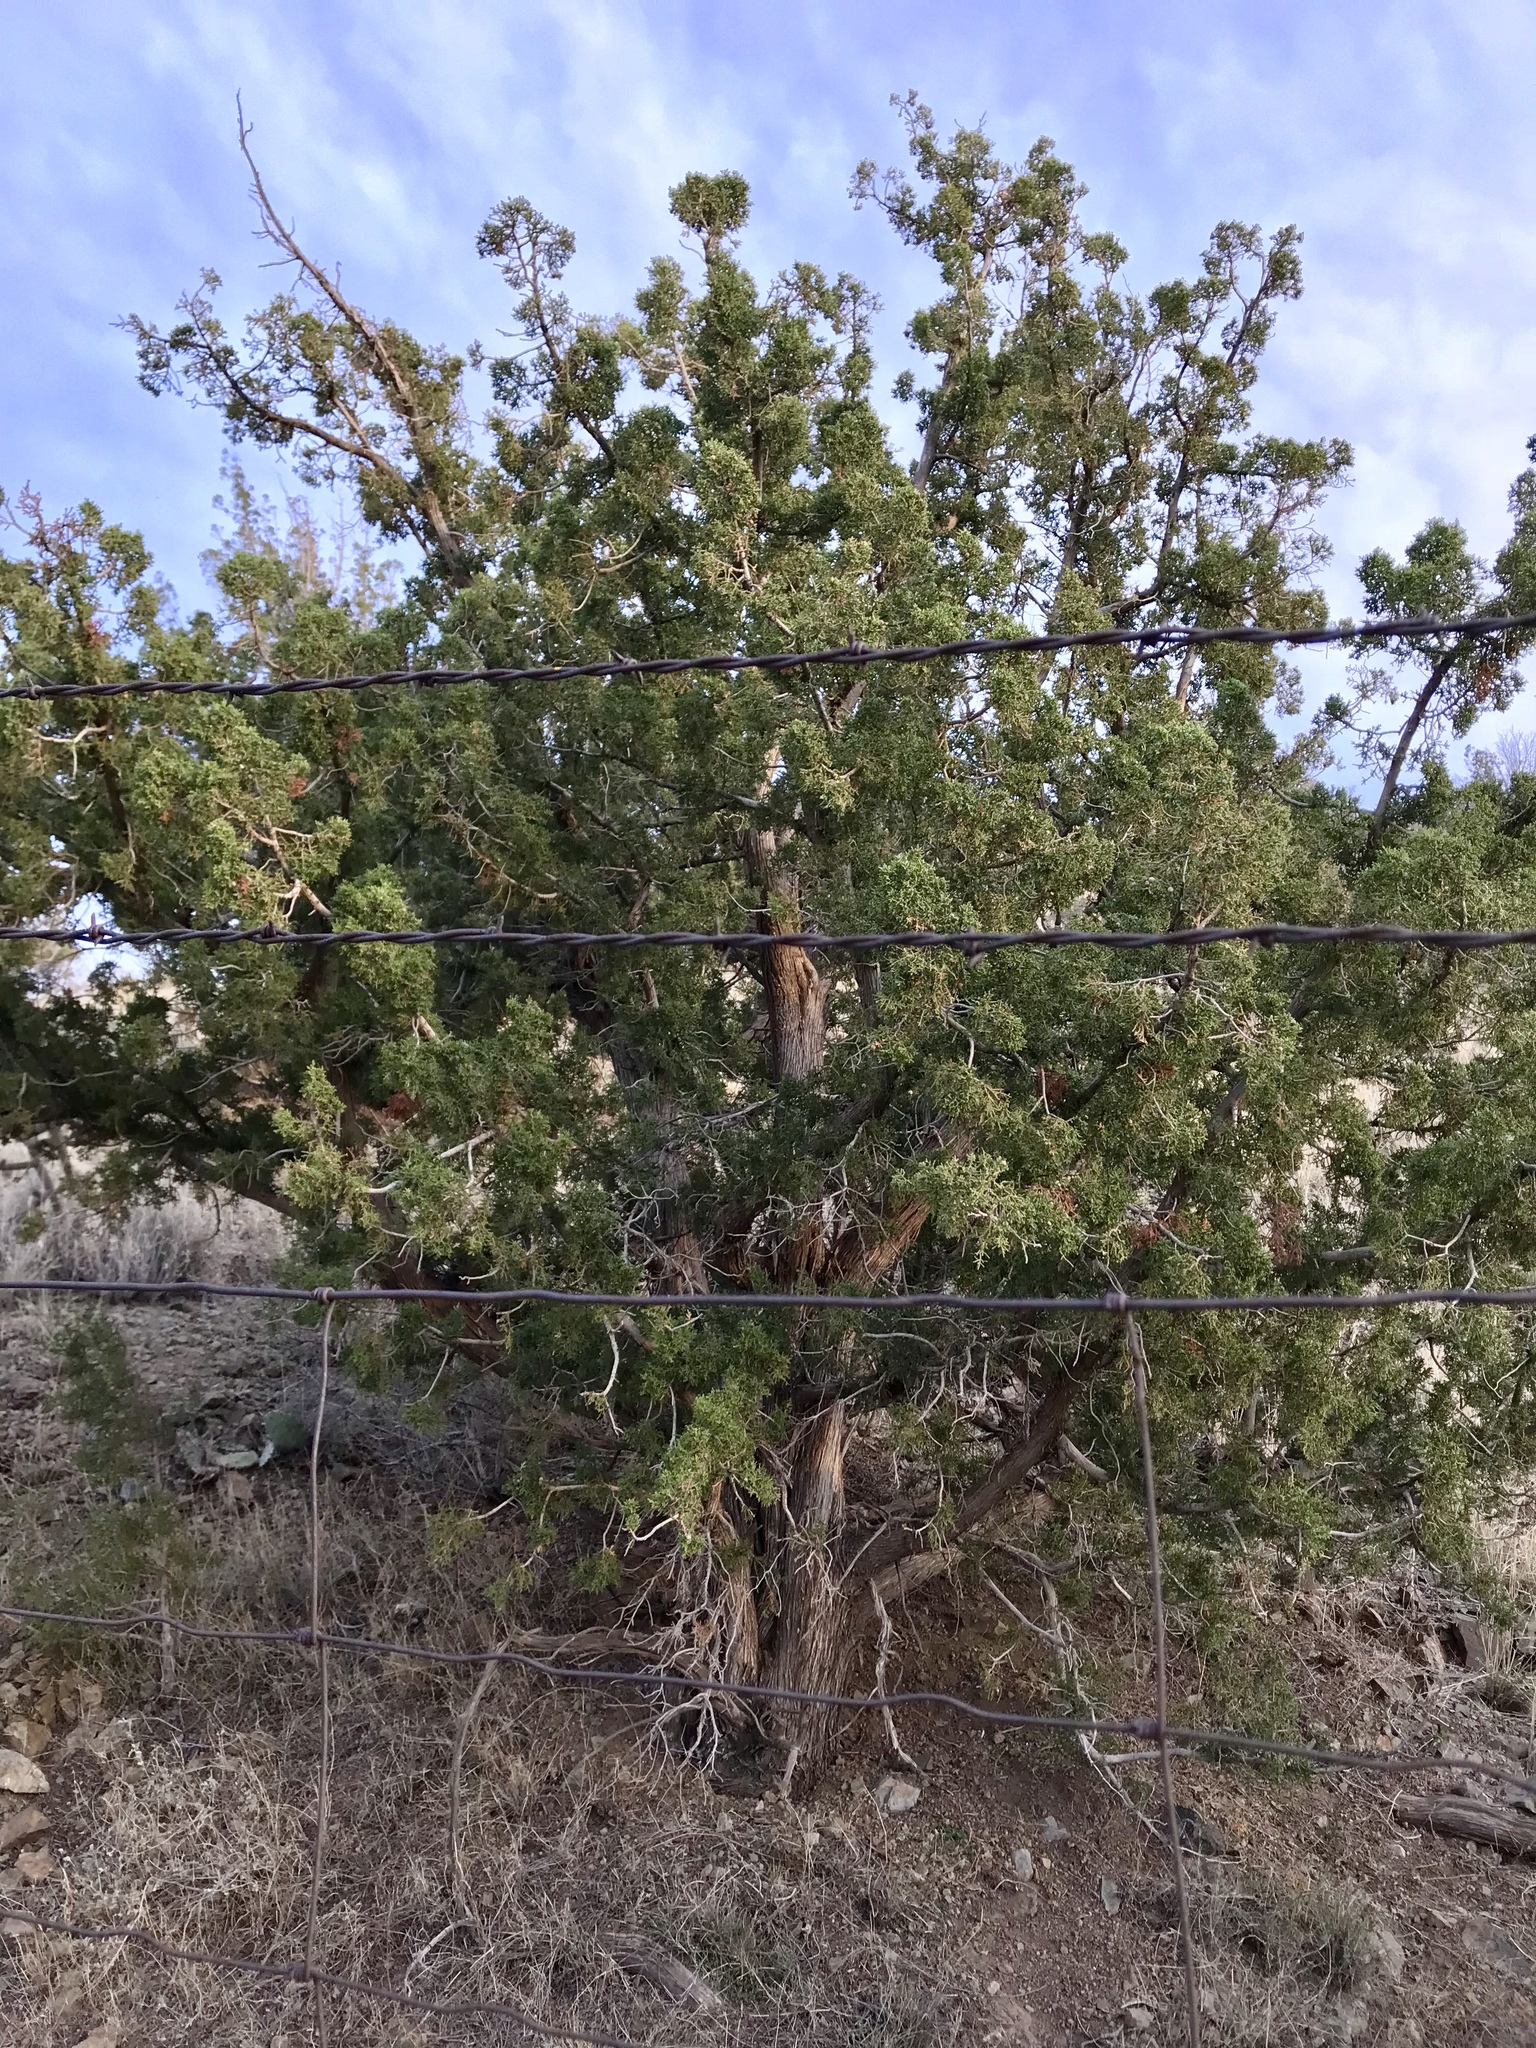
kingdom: Plantae
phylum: Tracheophyta
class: Pinopsida
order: Pinales
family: Cupressaceae
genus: Juniperus
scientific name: Juniperus monosperma
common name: One-seed juniper
